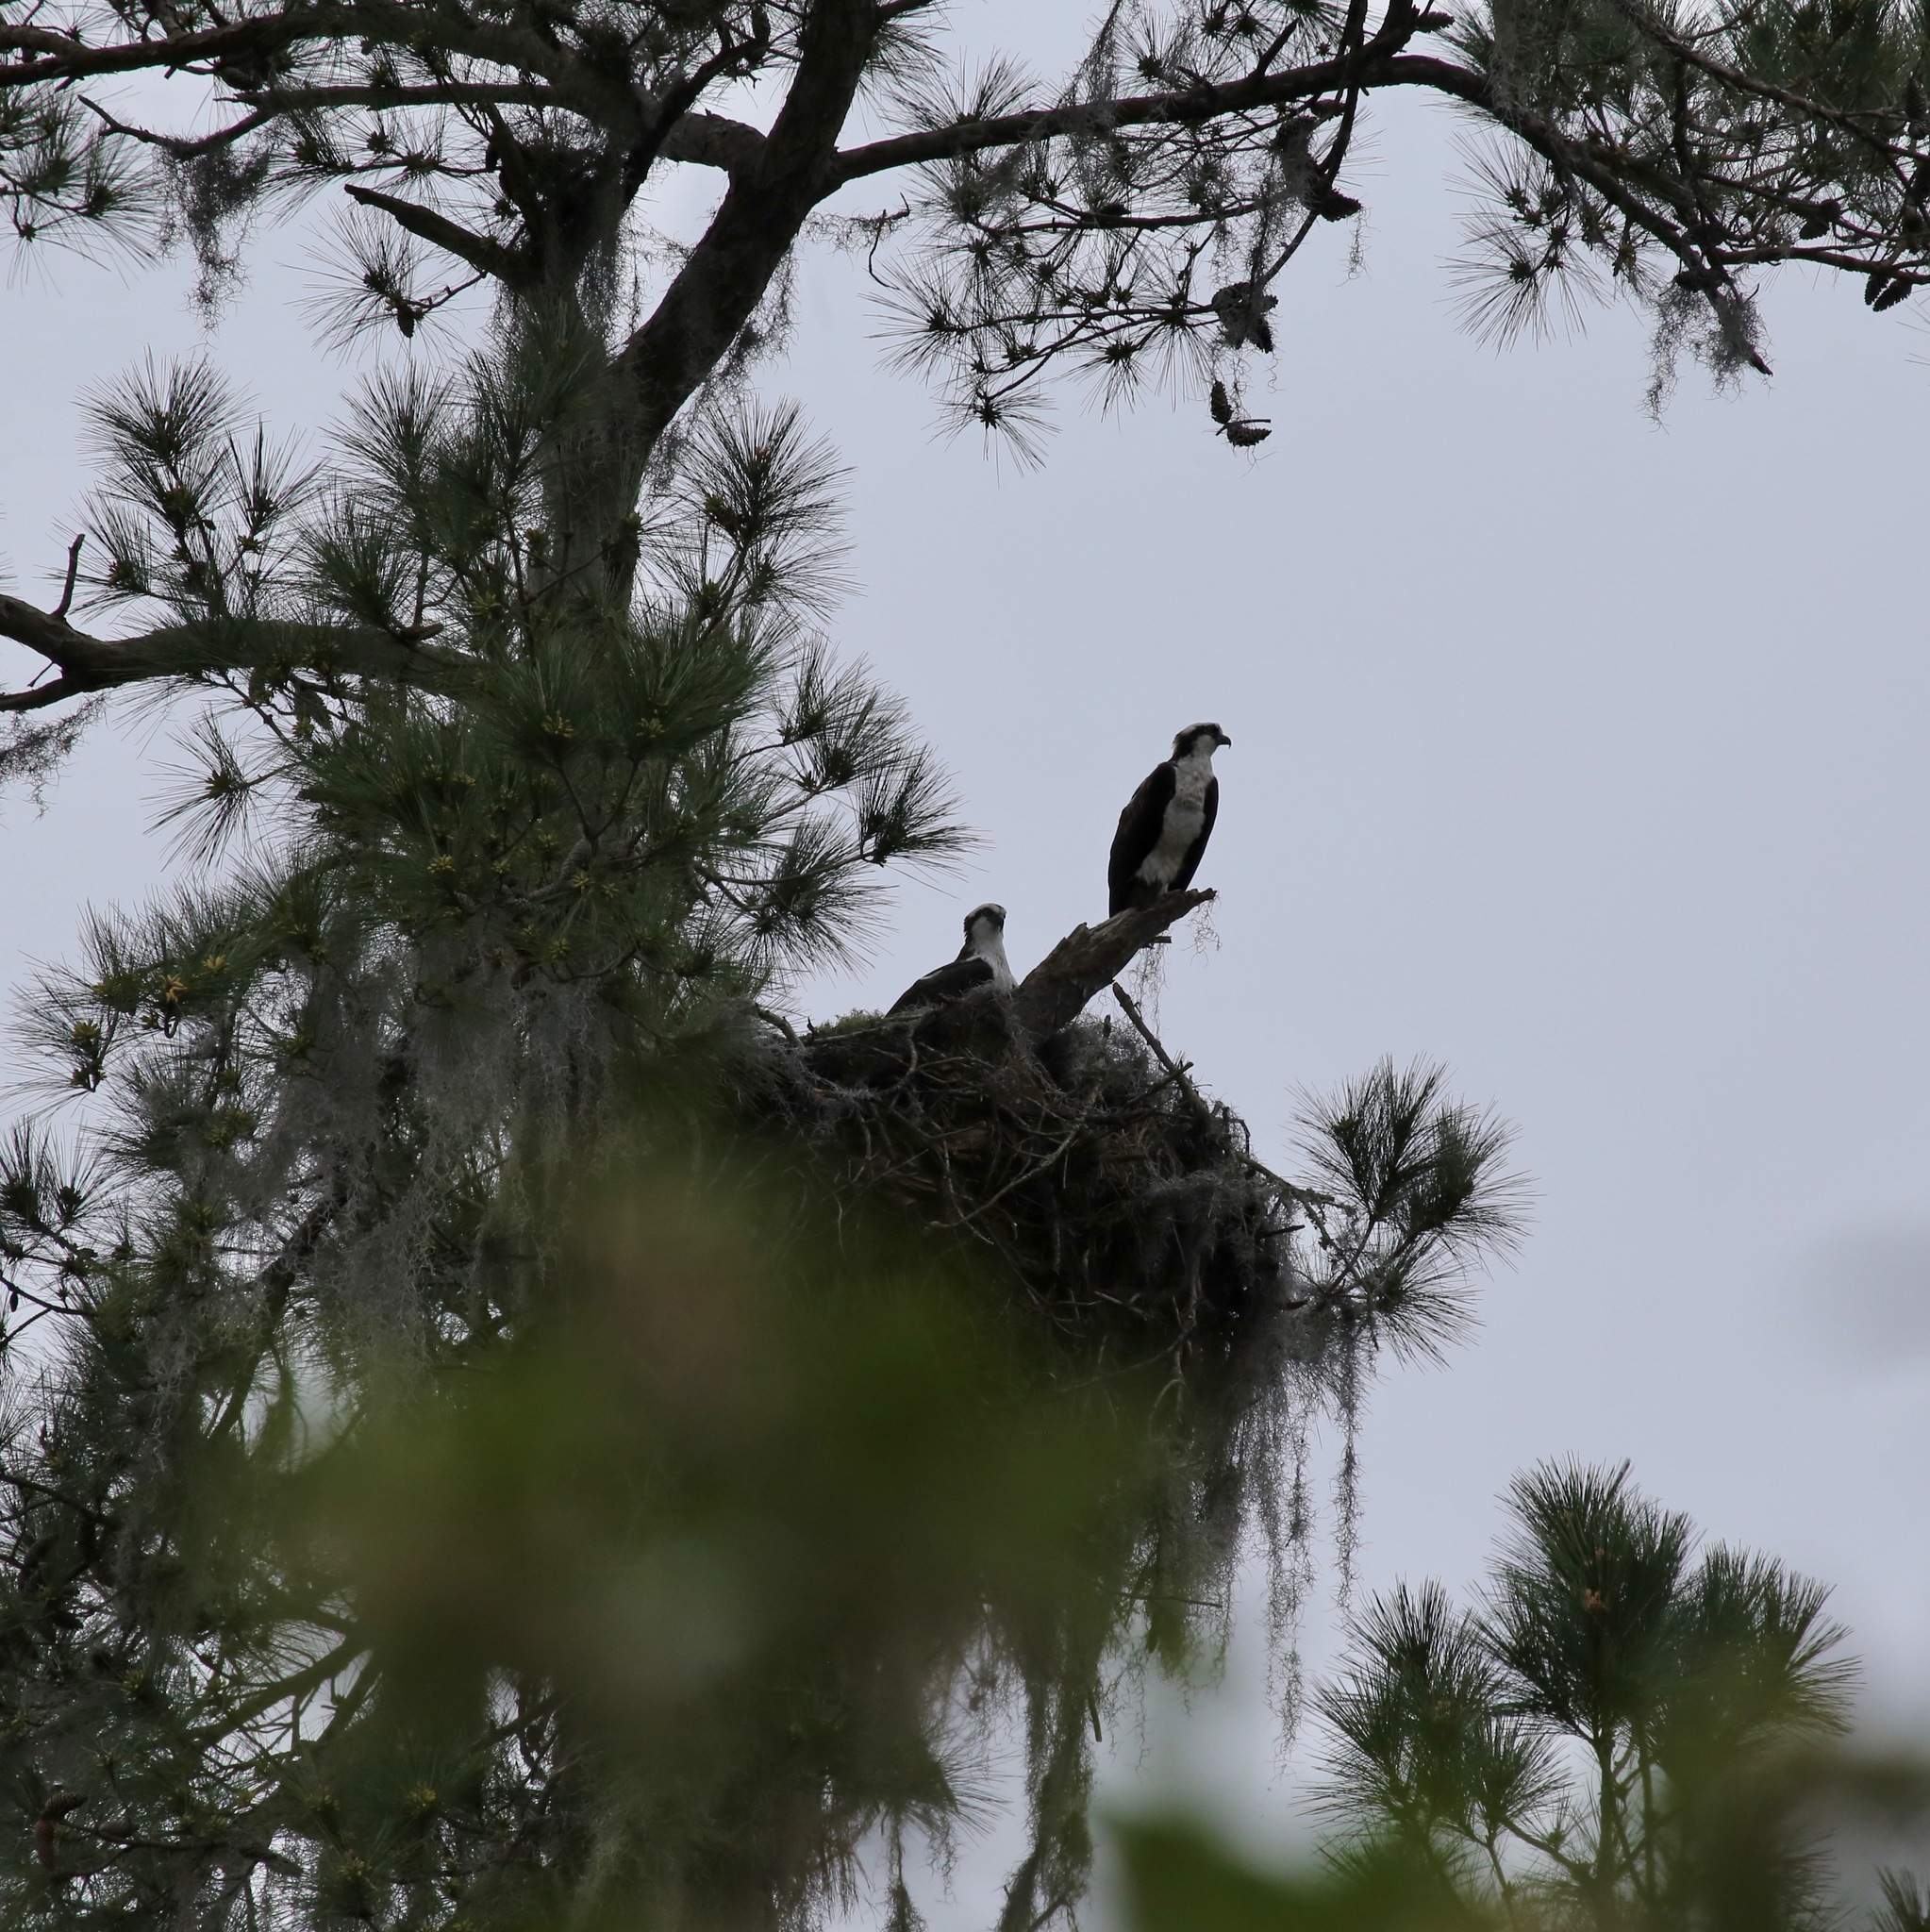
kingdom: Animalia
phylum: Chordata
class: Aves
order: Accipitriformes
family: Pandionidae
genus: Pandion
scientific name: Pandion haliaetus
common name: Osprey
